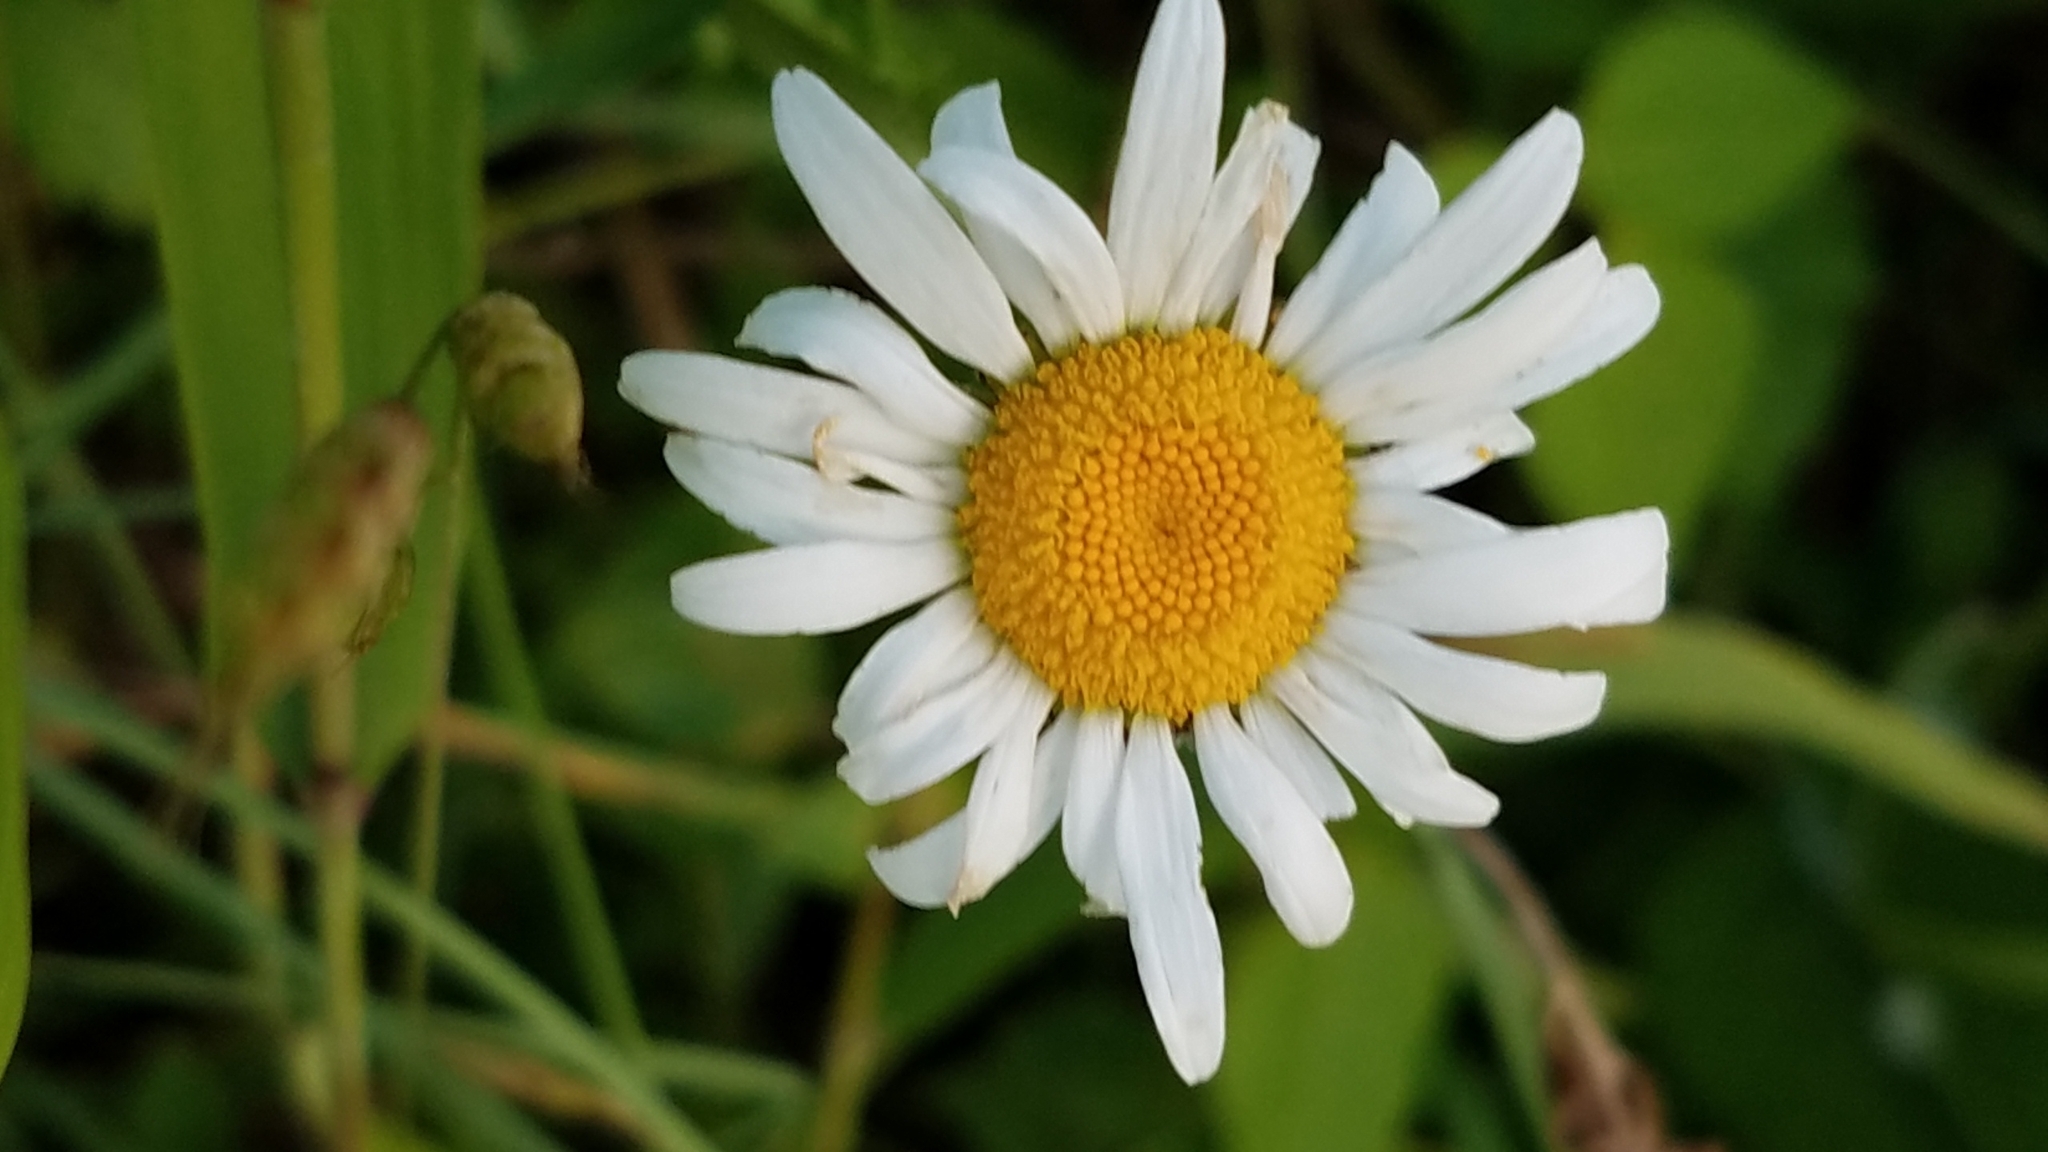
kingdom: Plantae
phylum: Tracheophyta
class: Magnoliopsida
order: Asterales
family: Asteraceae
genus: Leucanthemum
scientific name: Leucanthemum vulgare
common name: Oxeye daisy
